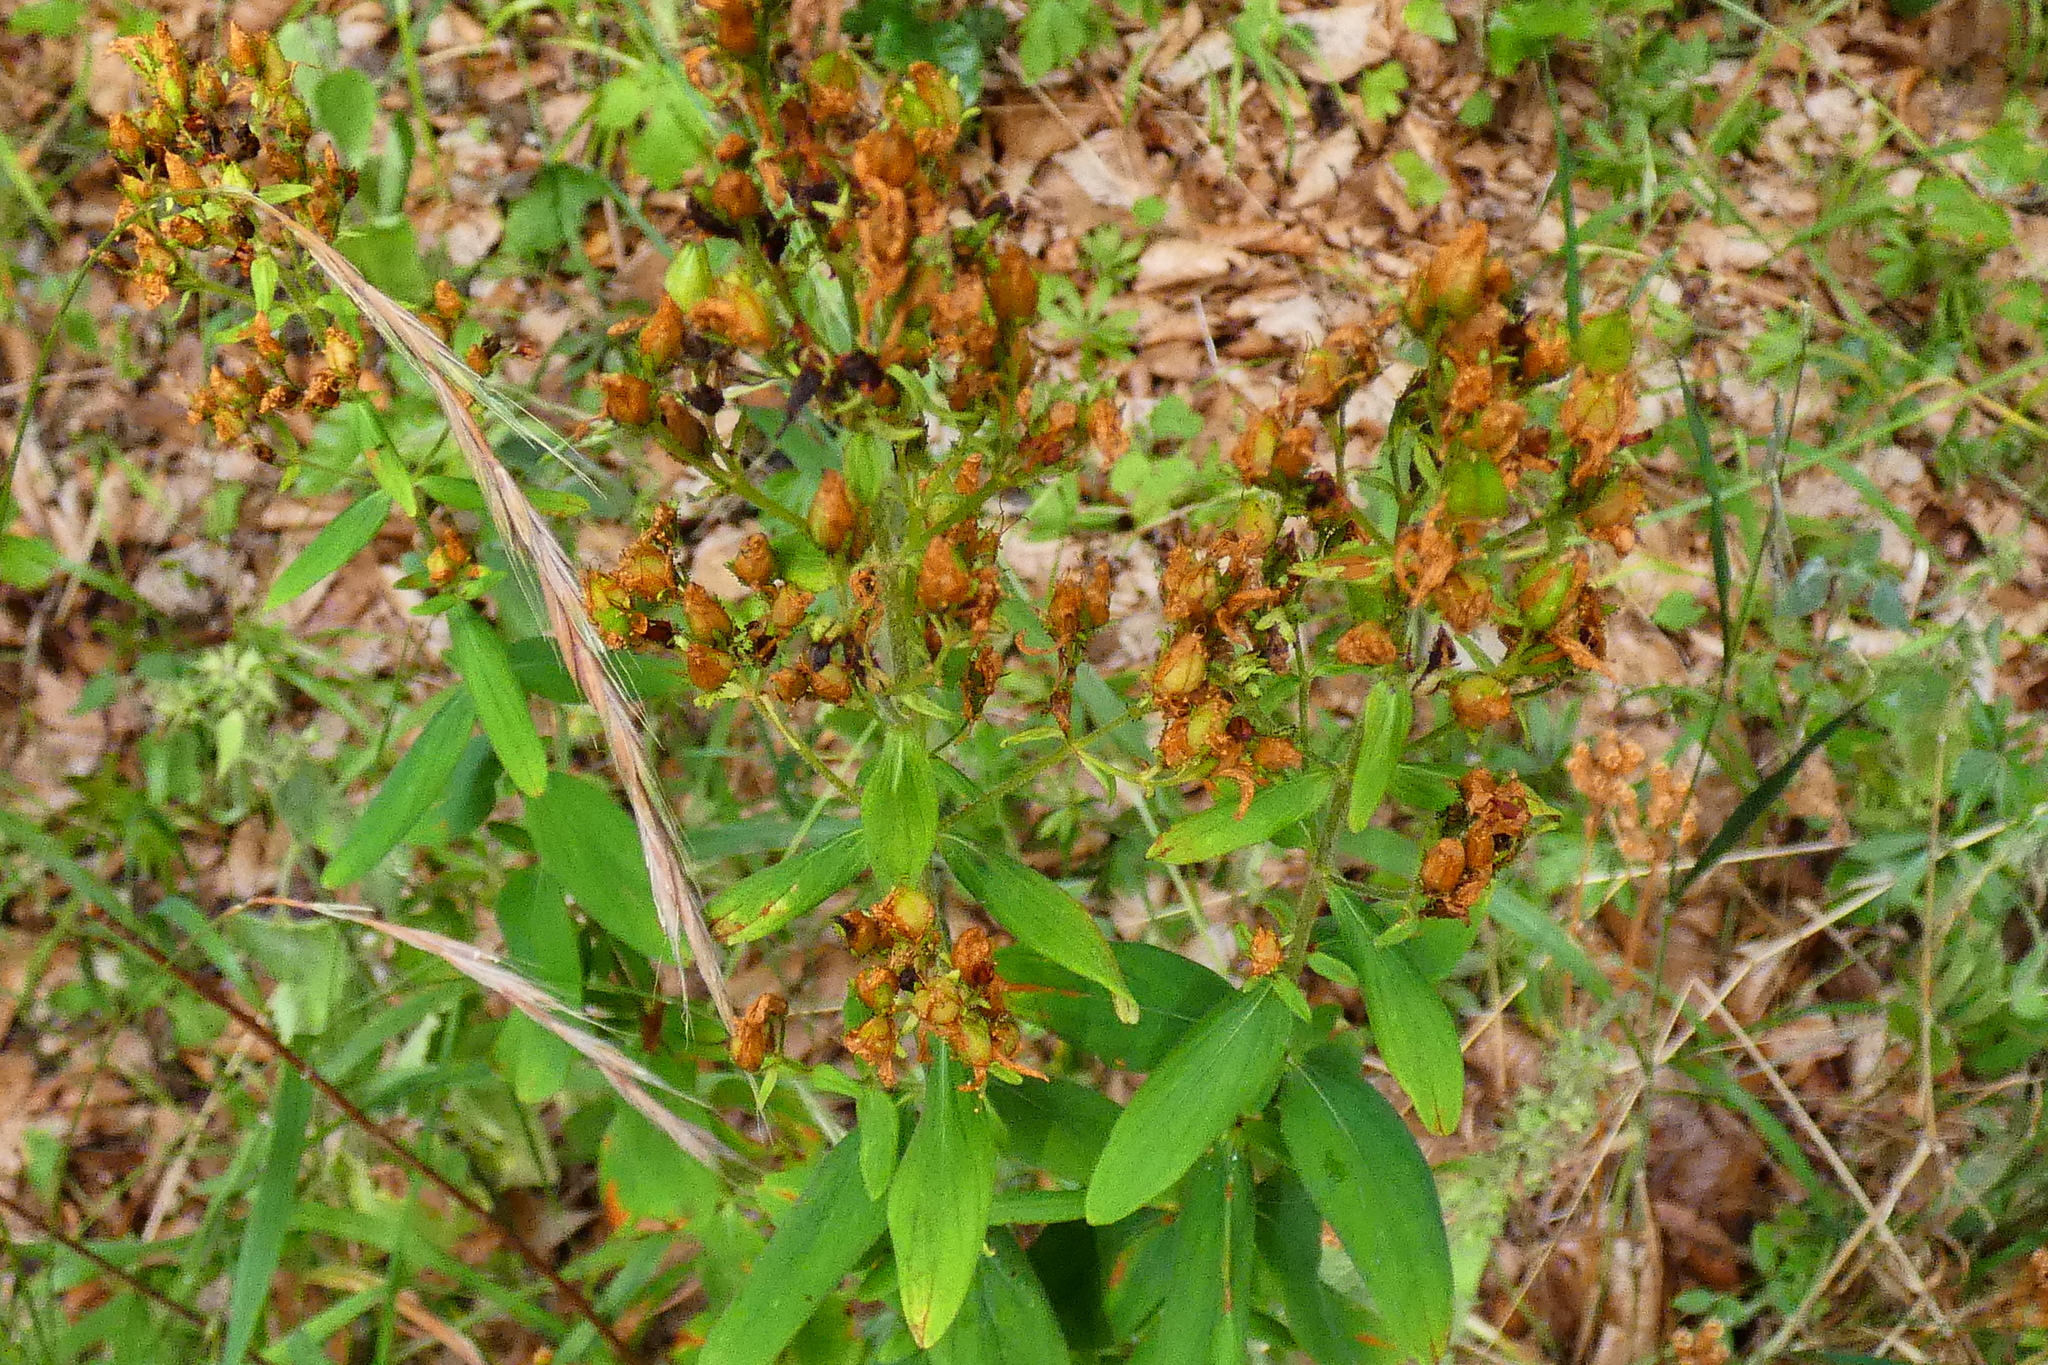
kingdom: Plantae
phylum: Tracheophyta
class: Magnoliopsida
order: Malpighiales
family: Hypericaceae
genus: Hypericum
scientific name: Hypericum hirsutum
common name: Hairy st. john's-wort
